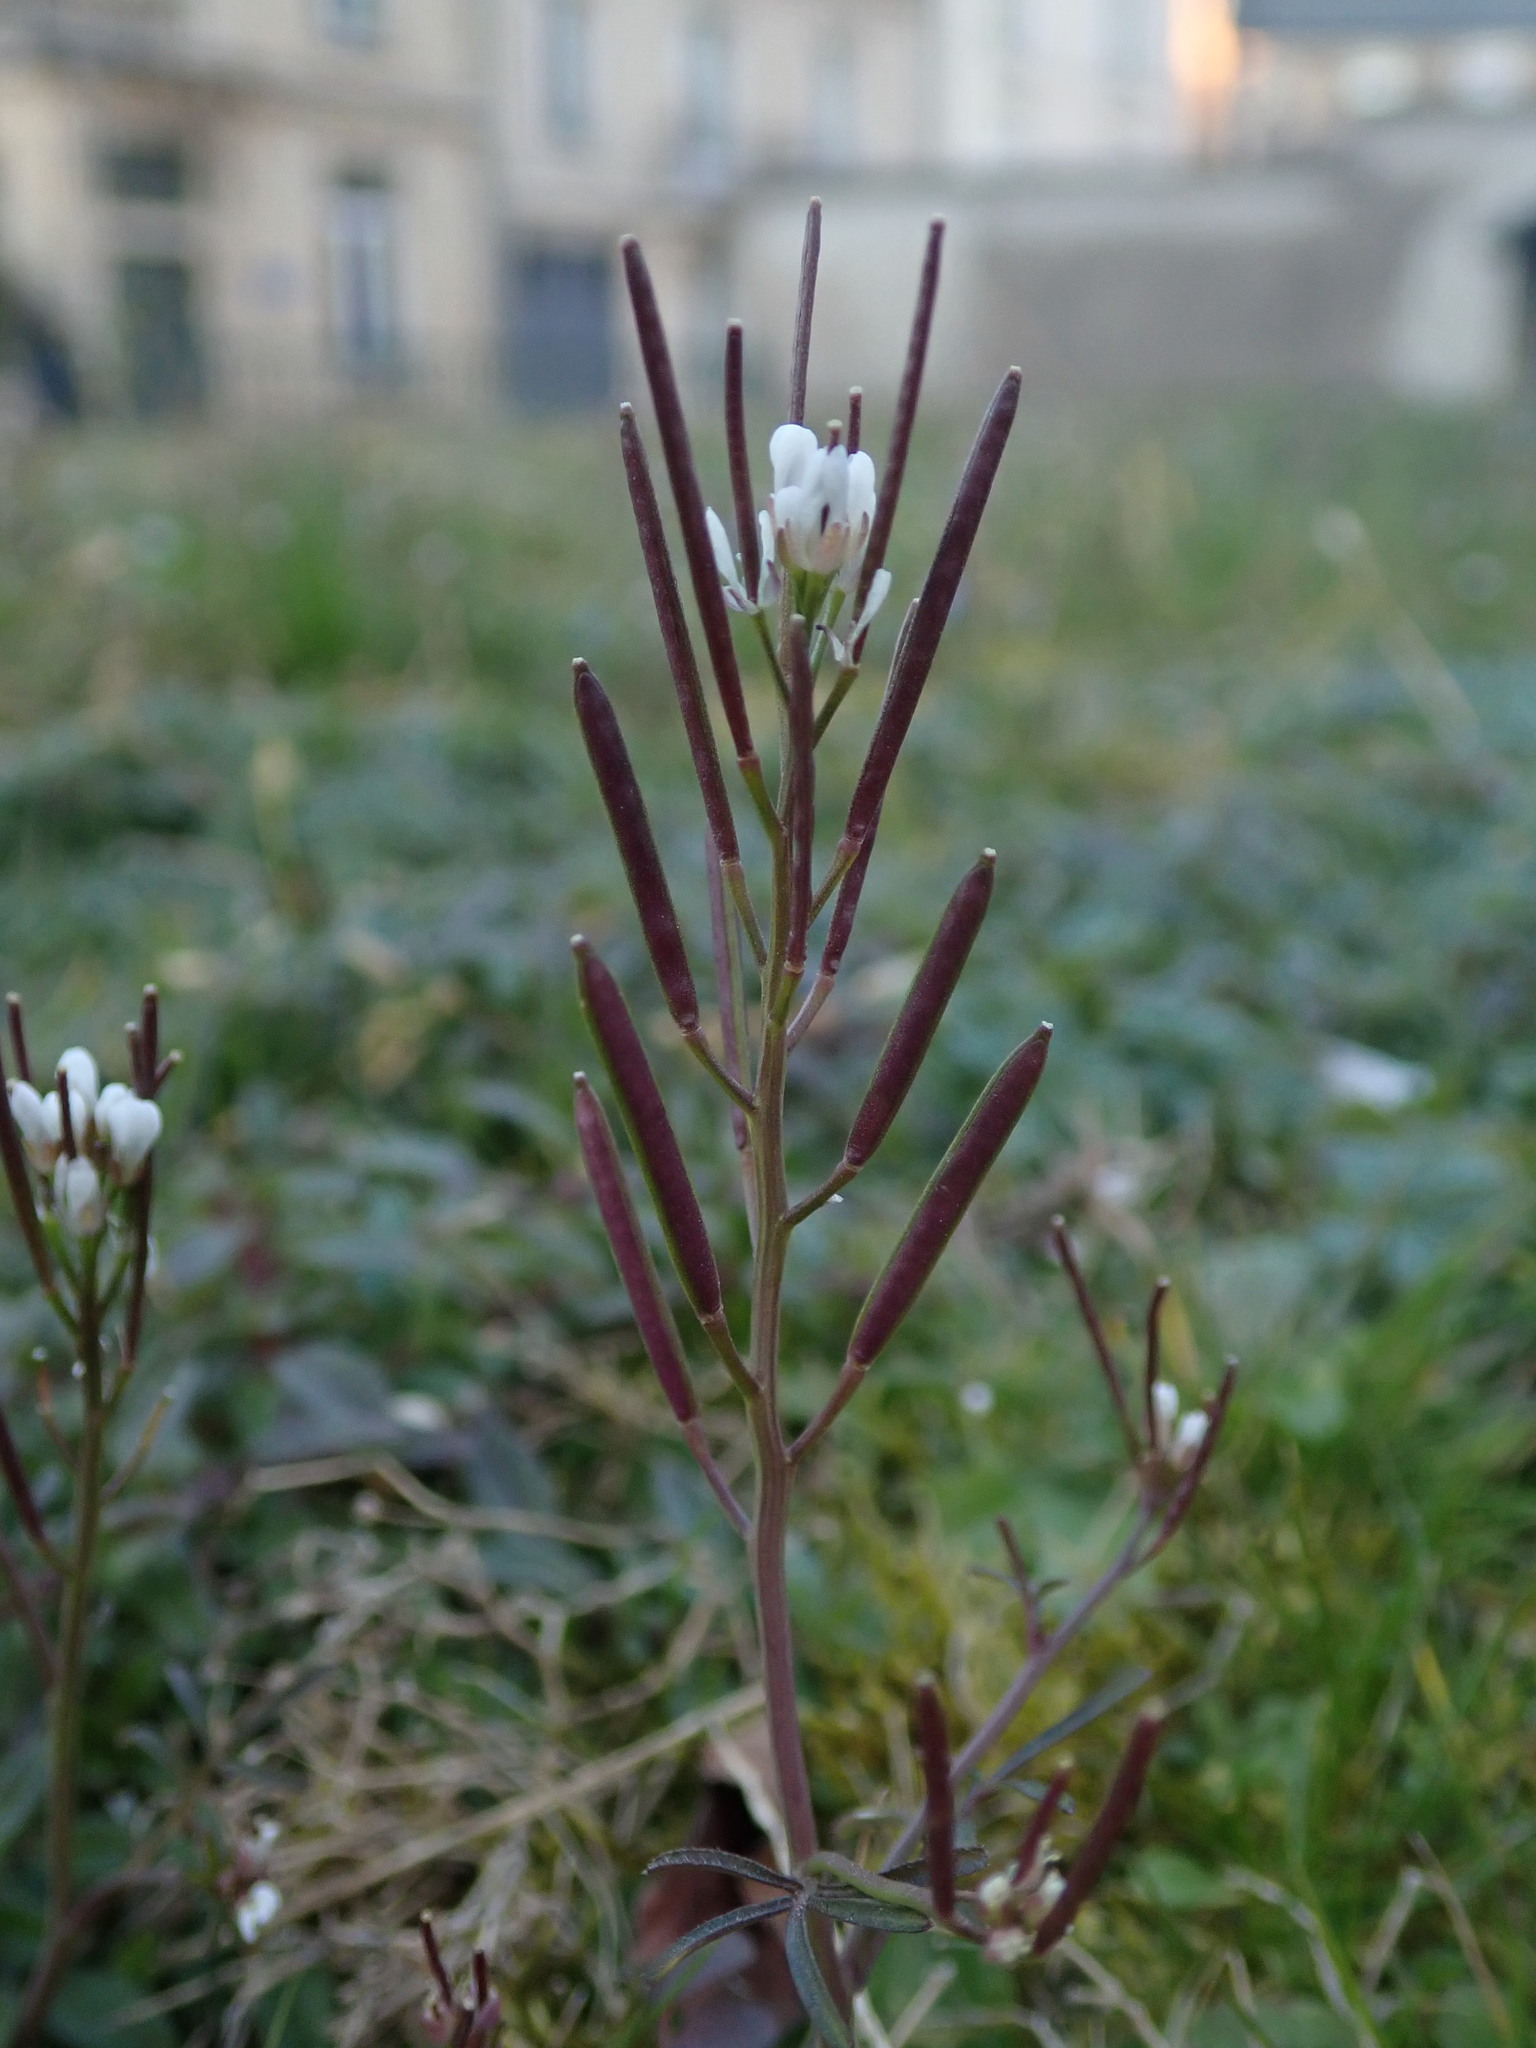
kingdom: Plantae
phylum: Tracheophyta
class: Magnoliopsida
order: Brassicales
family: Brassicaceae
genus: Cardamine
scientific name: Cardamine hirsuta
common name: Hairy bittercress
